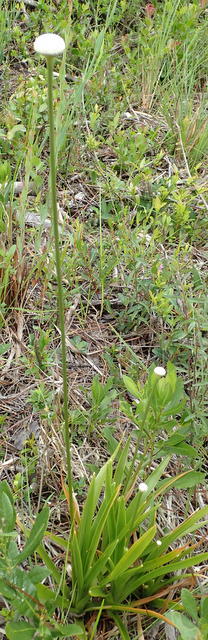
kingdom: Plantae
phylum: Tracheophyta
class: Liliopsida
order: Poales
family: Eriocaulaceae
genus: Eriocaulon
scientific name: Eriocaulon decangulare
